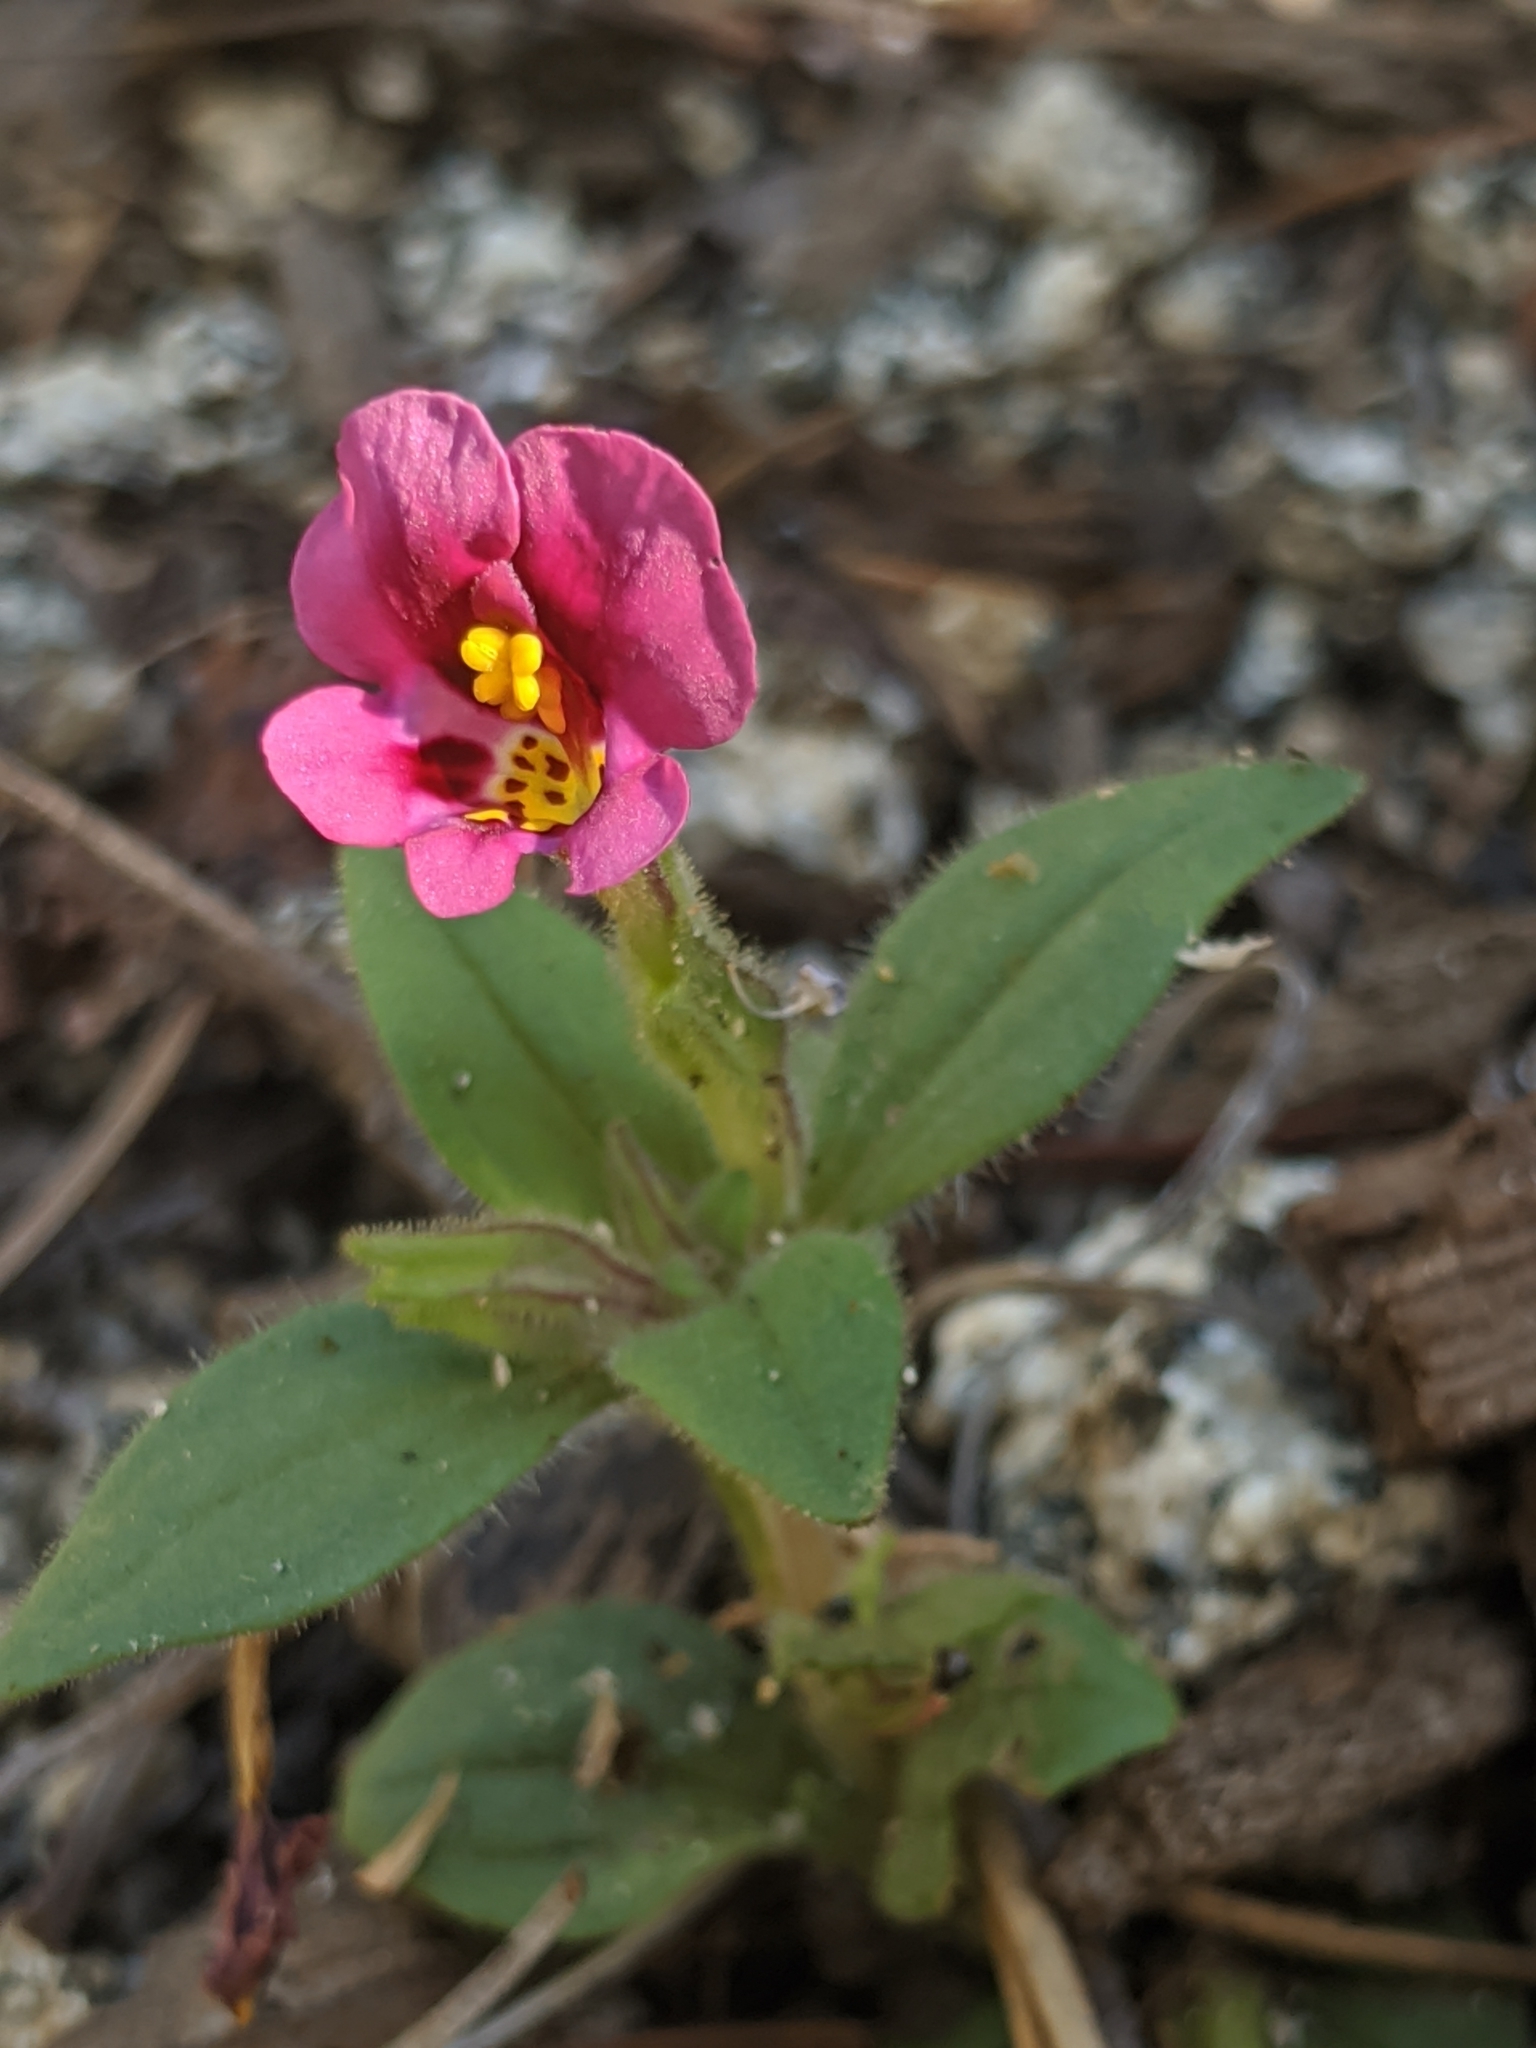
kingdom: Plantae
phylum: Tracheophyta
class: Magnoliopsida
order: Lamiales
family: Phrymaceae
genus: Diplacus
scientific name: Diplacus kelloggii
